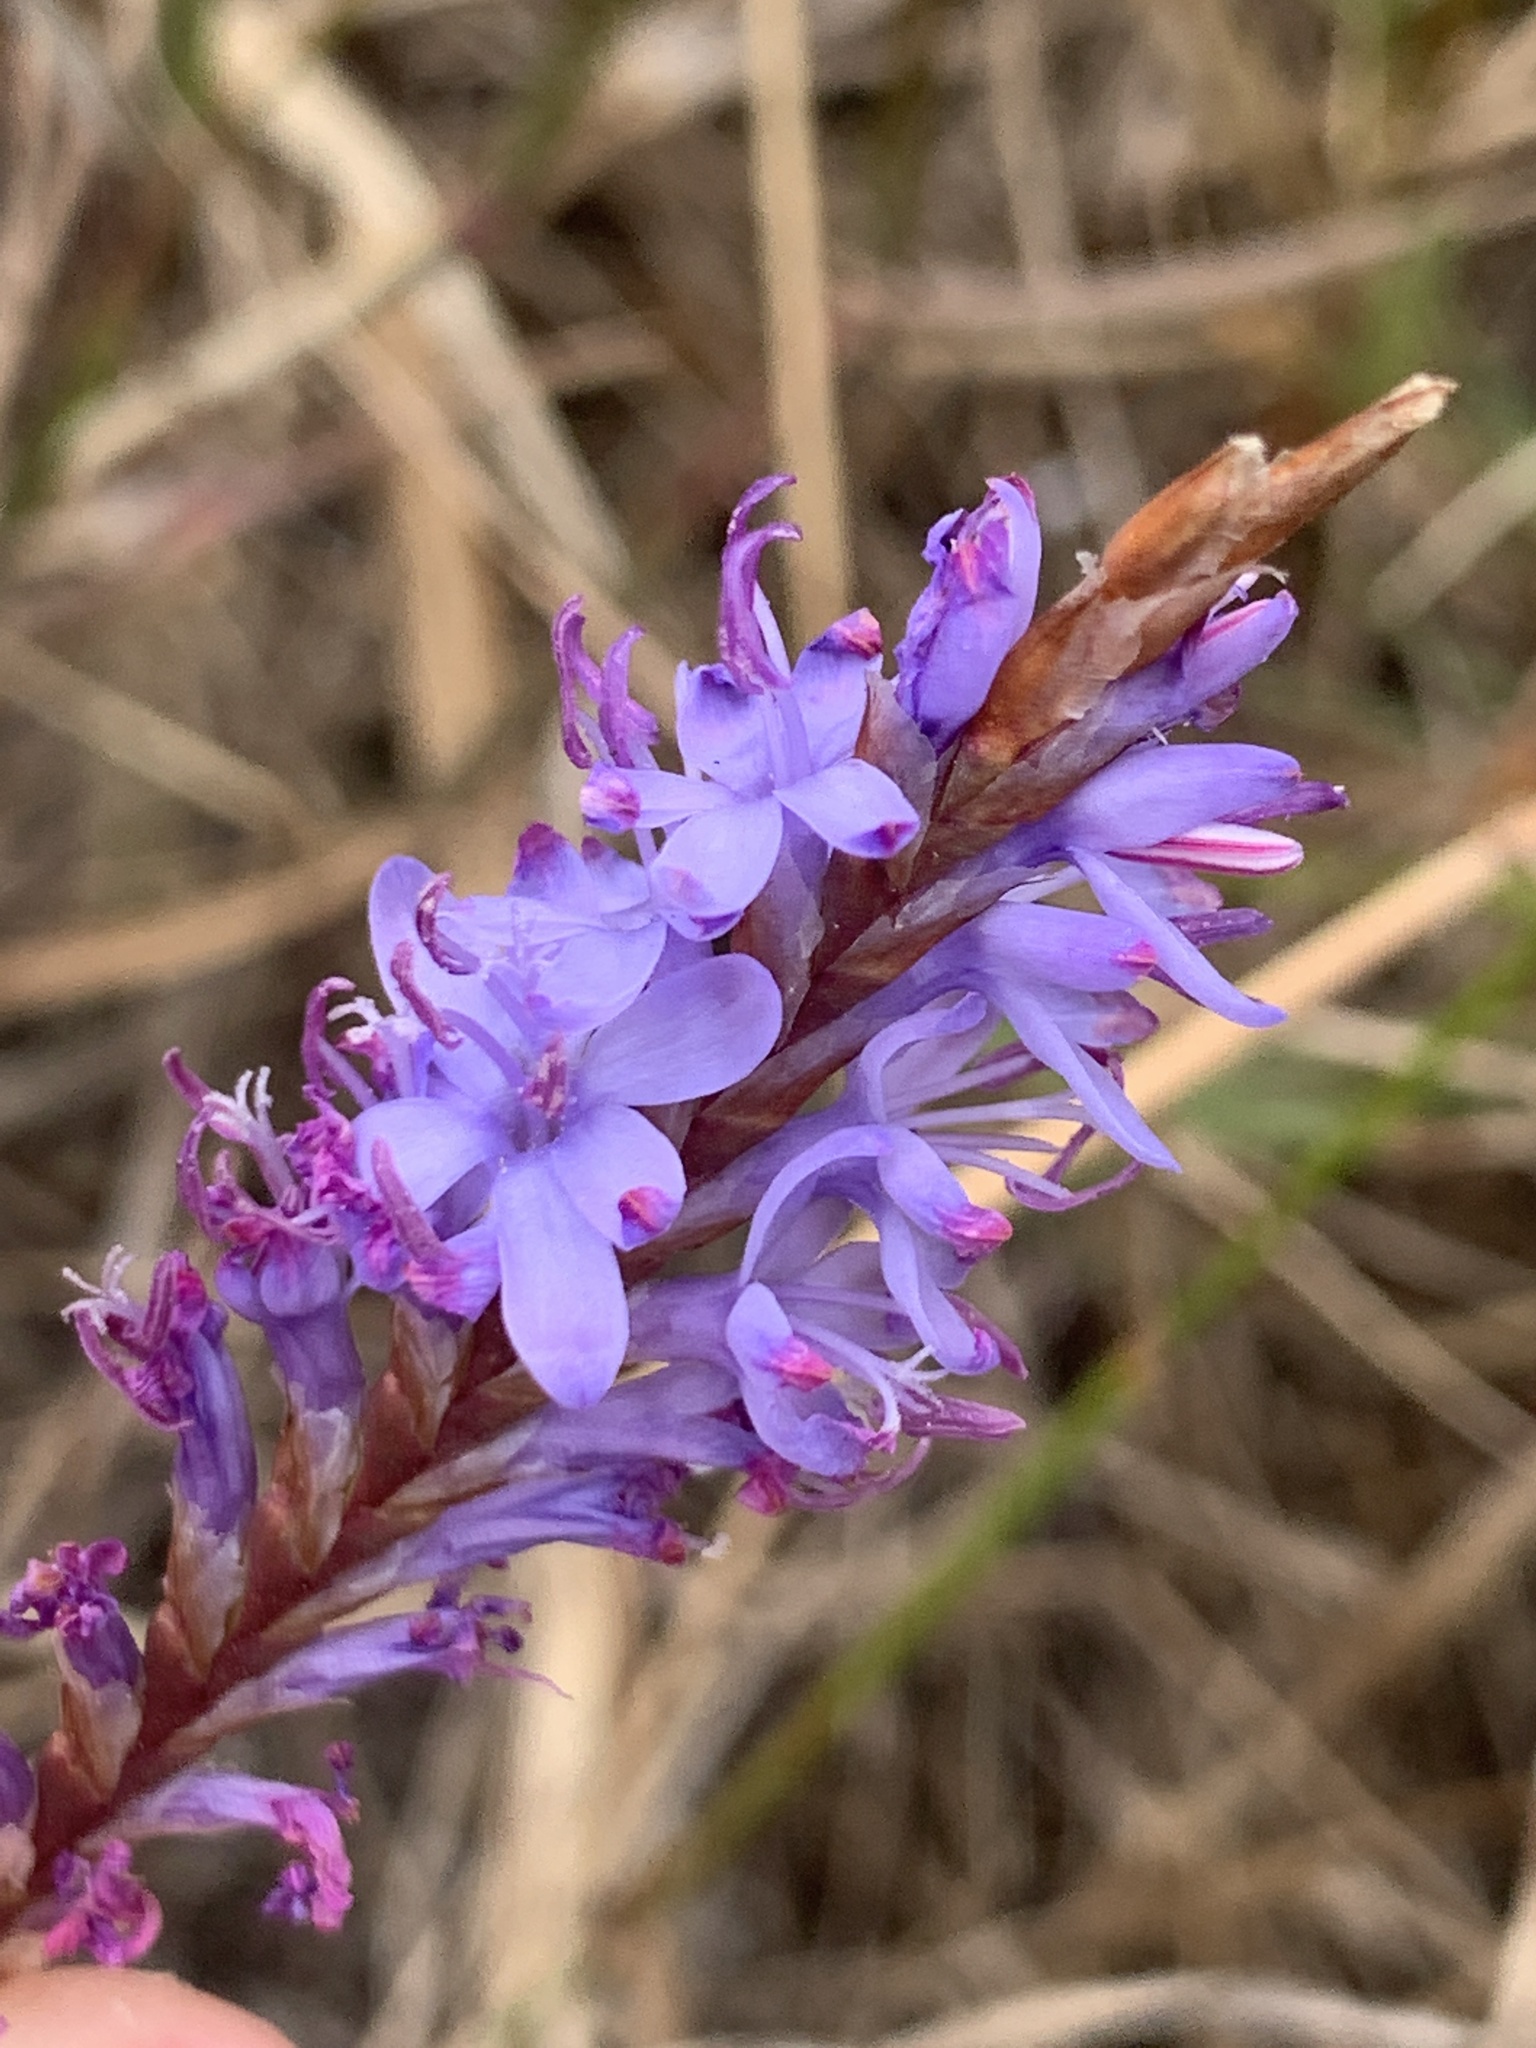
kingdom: Plantae
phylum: Tracheophyta
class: Liliopsida
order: Asparagales
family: Iridaceae
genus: Micranthus
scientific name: Micranthus plantagineus
